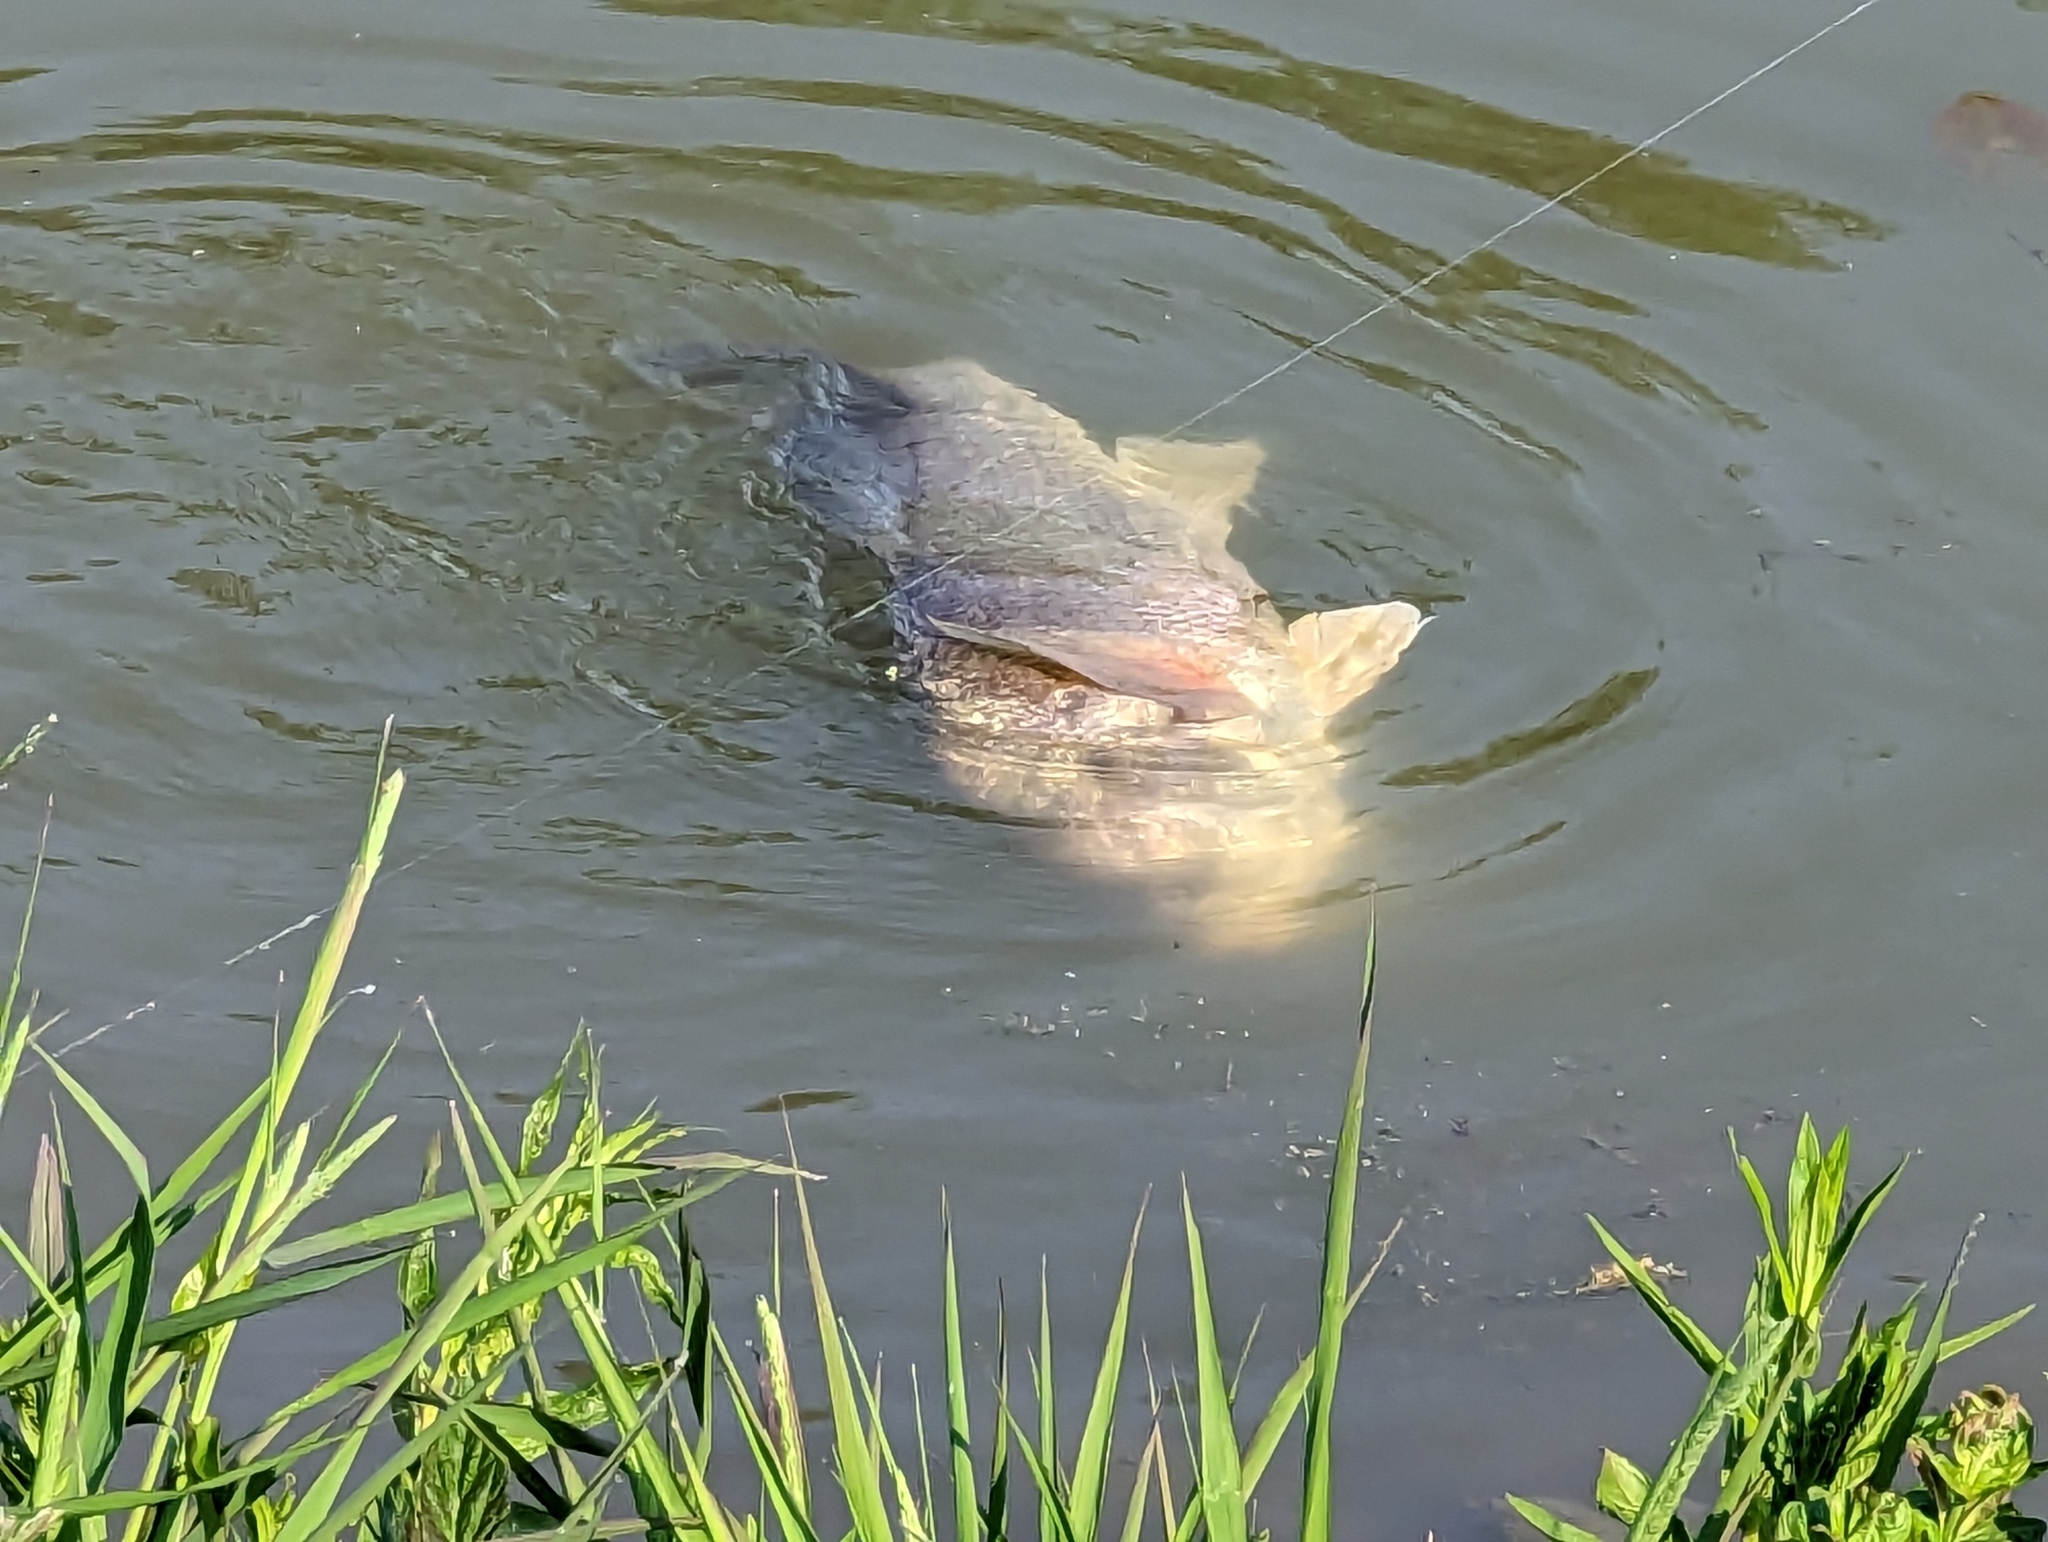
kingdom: Animalia
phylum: Chordata
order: Perciformes
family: Sciaenidae
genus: Aplodinotus
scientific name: Aplodinotus grunniens
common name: Freshwater drum
